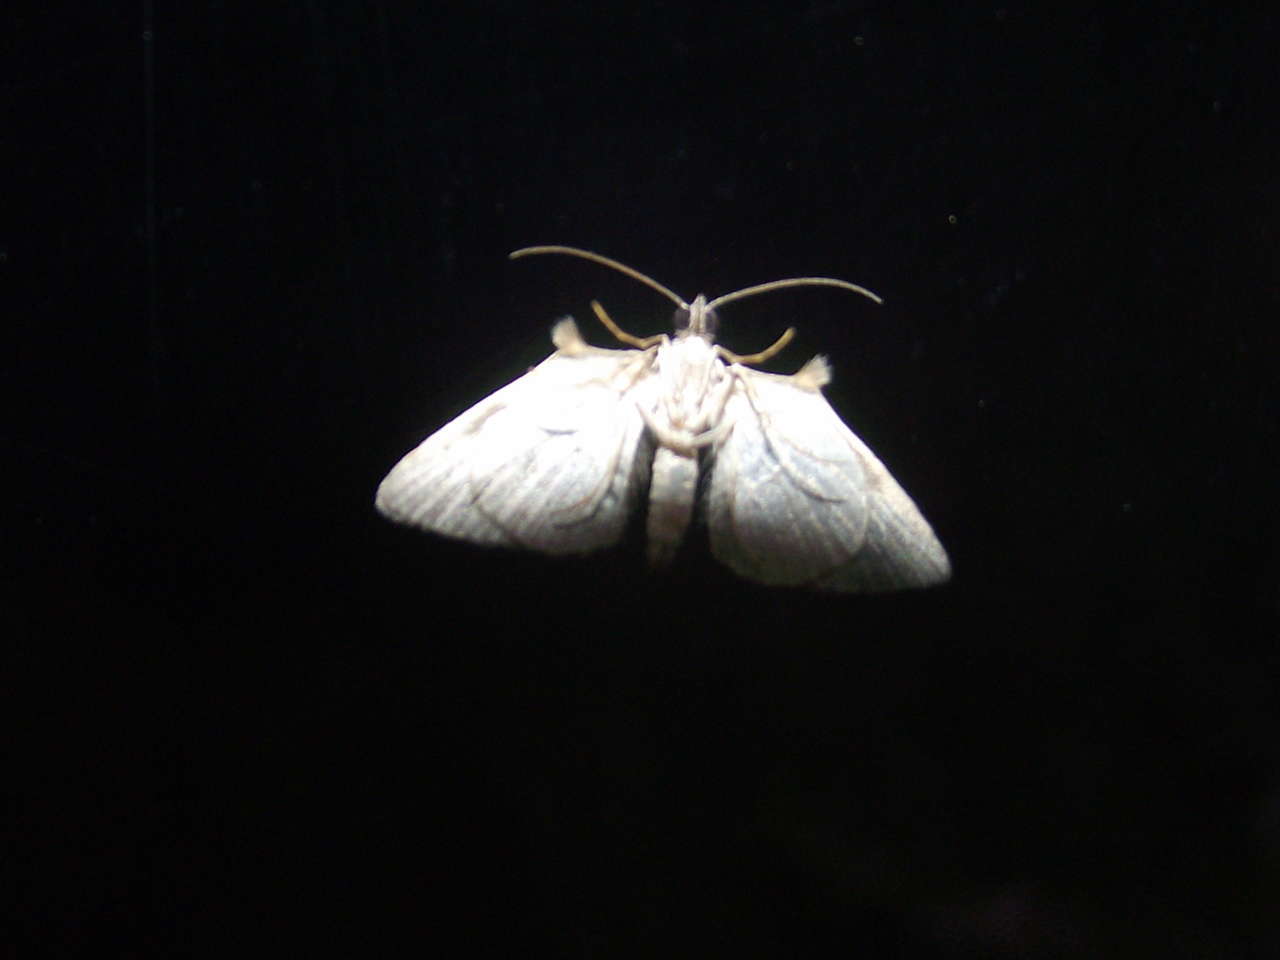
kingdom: Animalia
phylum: Arthropoda
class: Insecta
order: Lepidoptera
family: Geometridae
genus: Phrissogonus
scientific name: Phrissogonus laticostata
